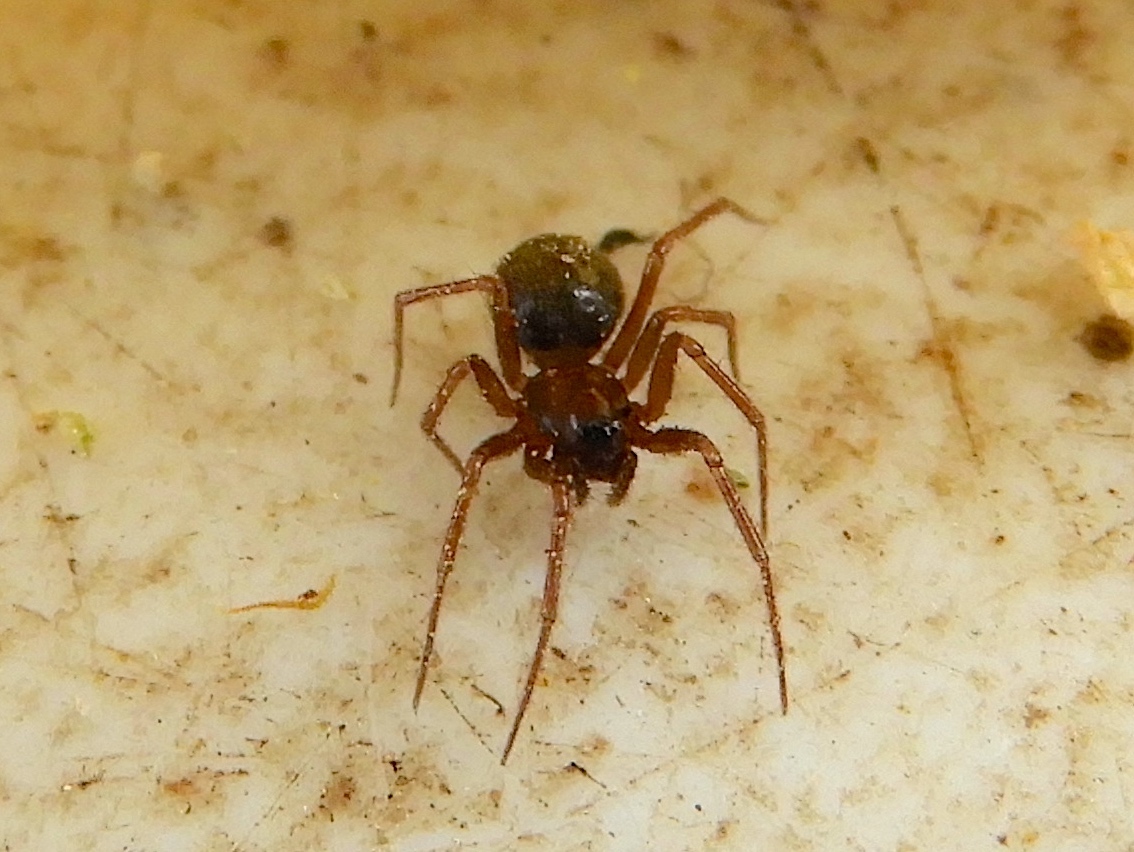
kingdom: Animalia
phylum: Arthropoda
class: Arachnida
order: Araneae
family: Theridiidae
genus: Nesticodes
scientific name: Nesticodes rufipes
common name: Cobweb spiders
